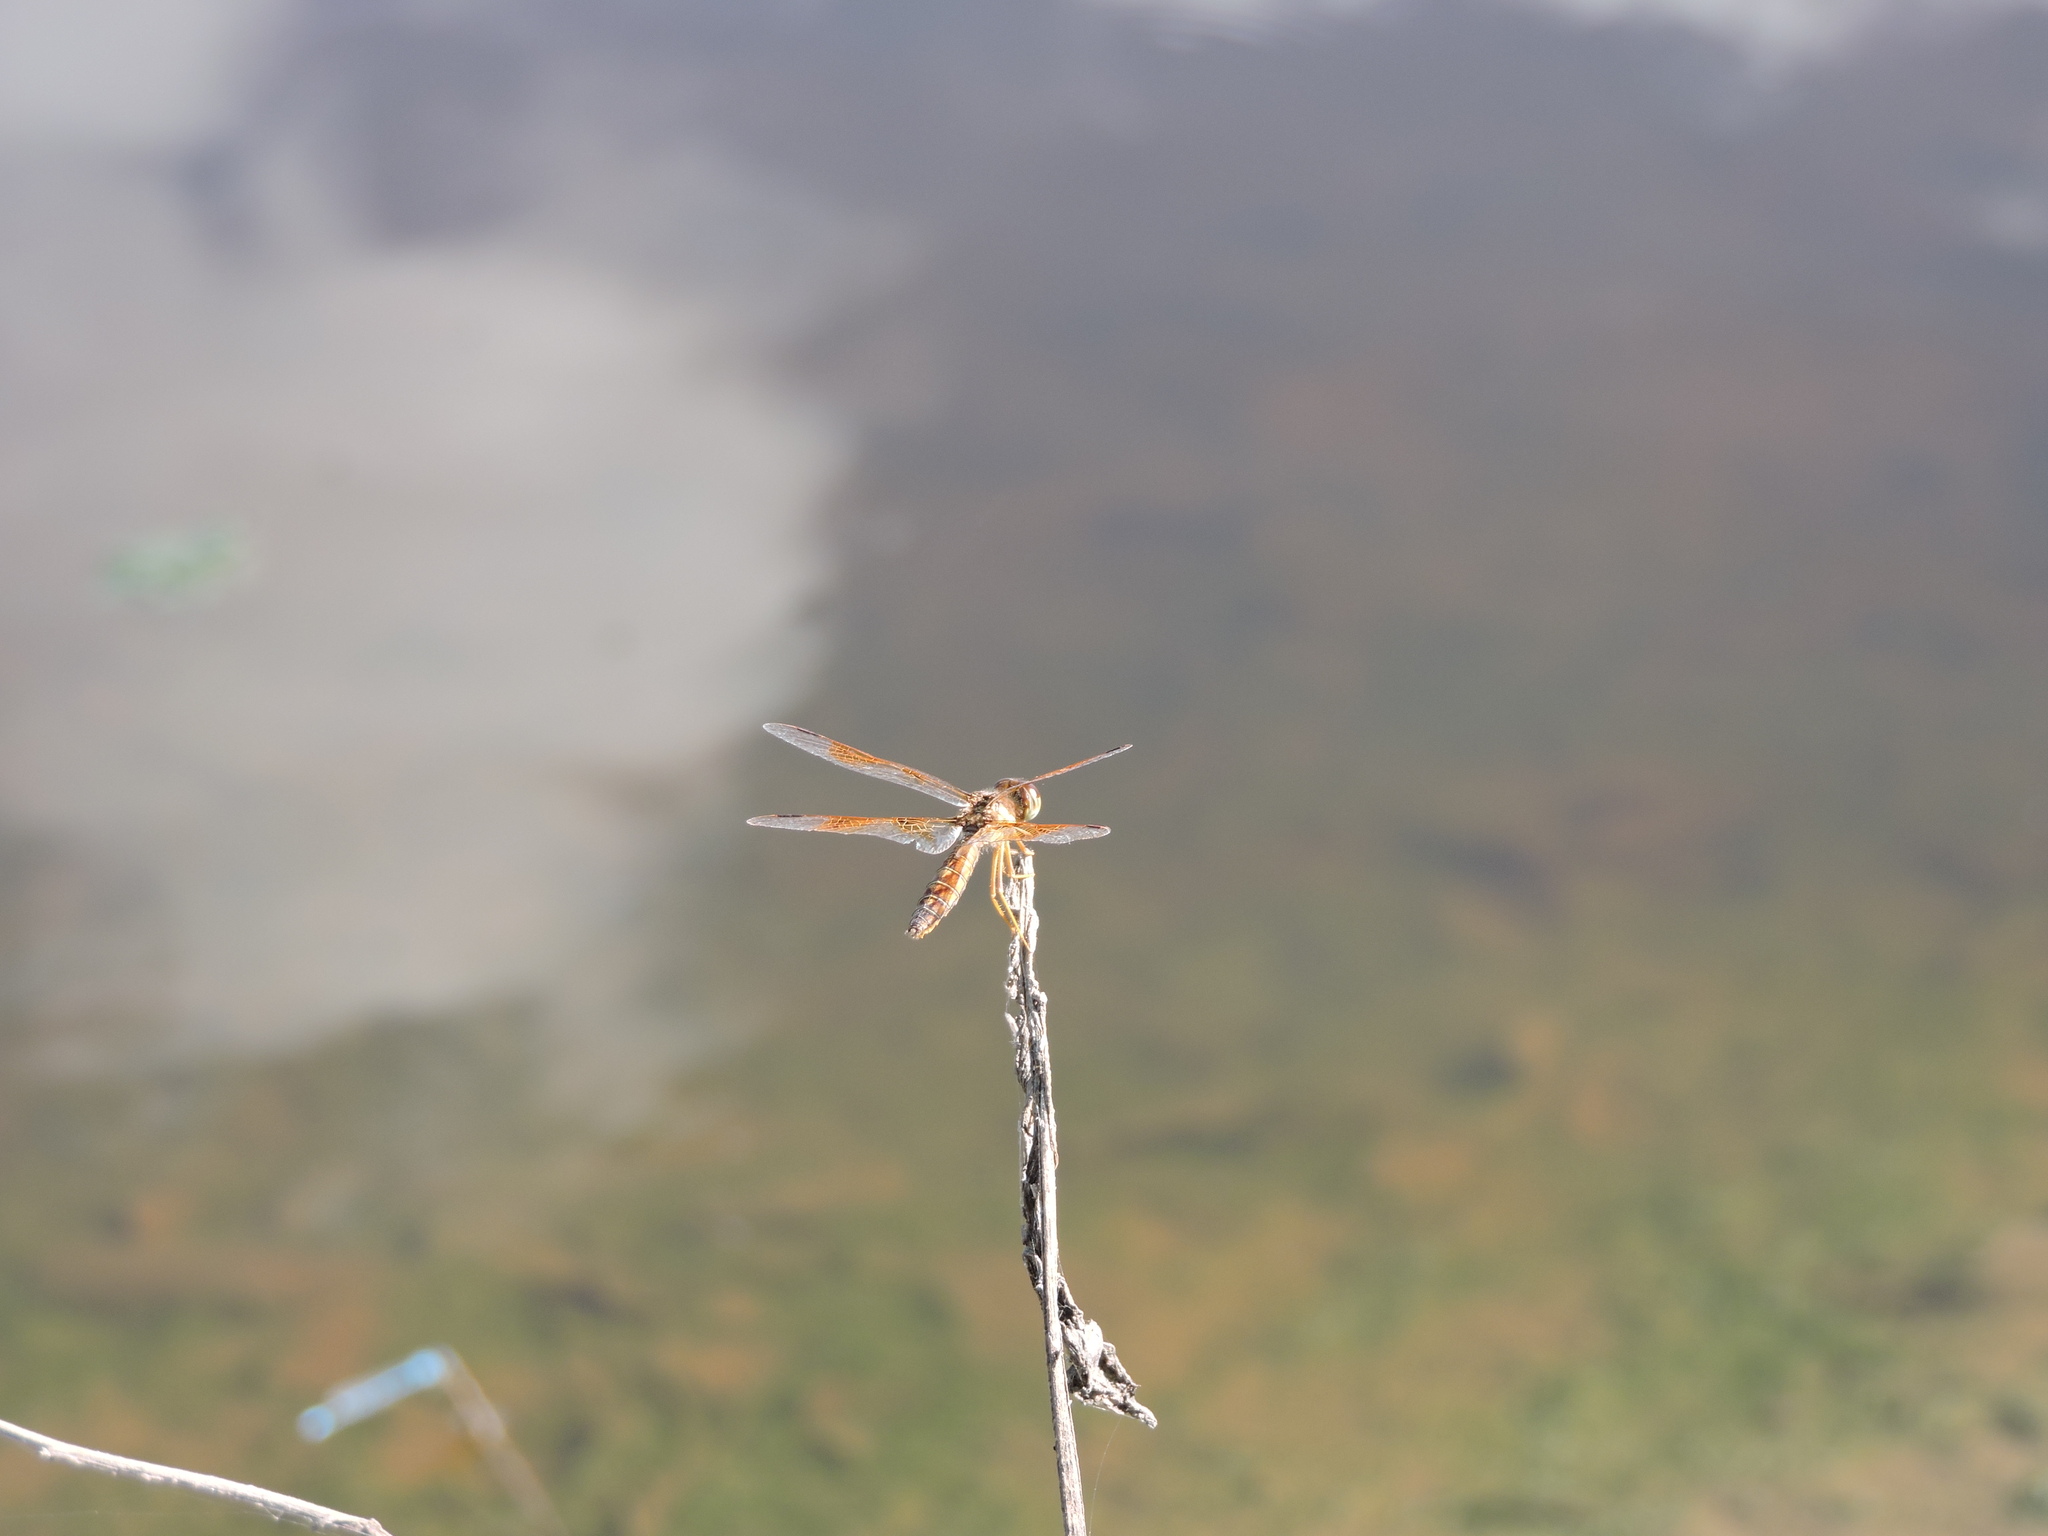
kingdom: Animalia
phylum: Arthropoda
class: Insecta
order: Odonata
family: Libellulidae
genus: Perithemis
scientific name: Perithemis tenera
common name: Eastern amberwing
